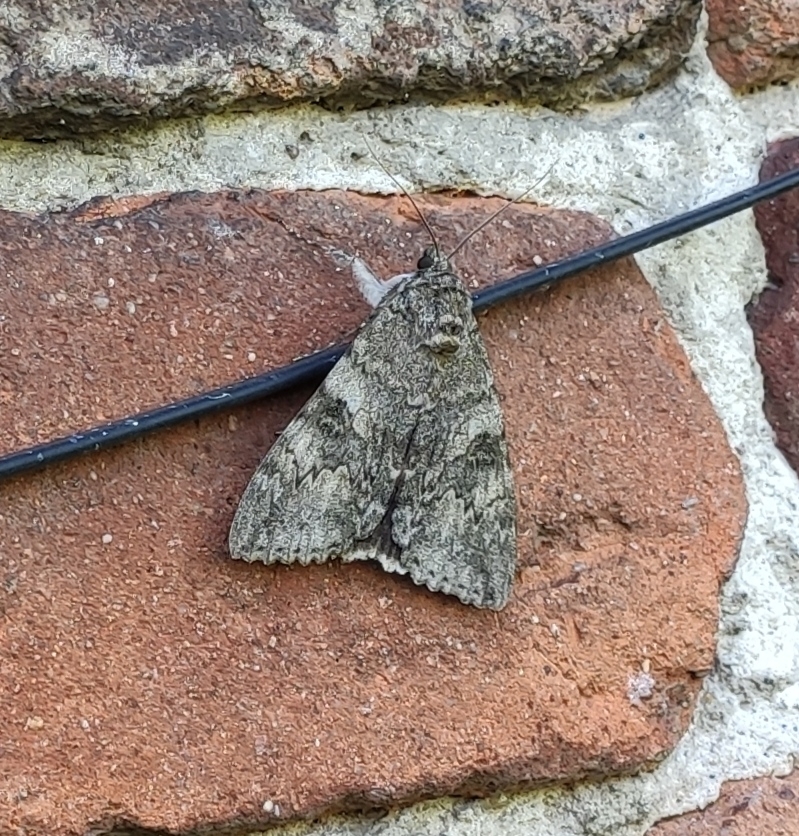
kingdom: Animalia
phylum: Arthropoda
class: Insecta
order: Lepidoptera
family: Erebidae
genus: Catocala
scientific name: Catocala nupta
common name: Red underwing
